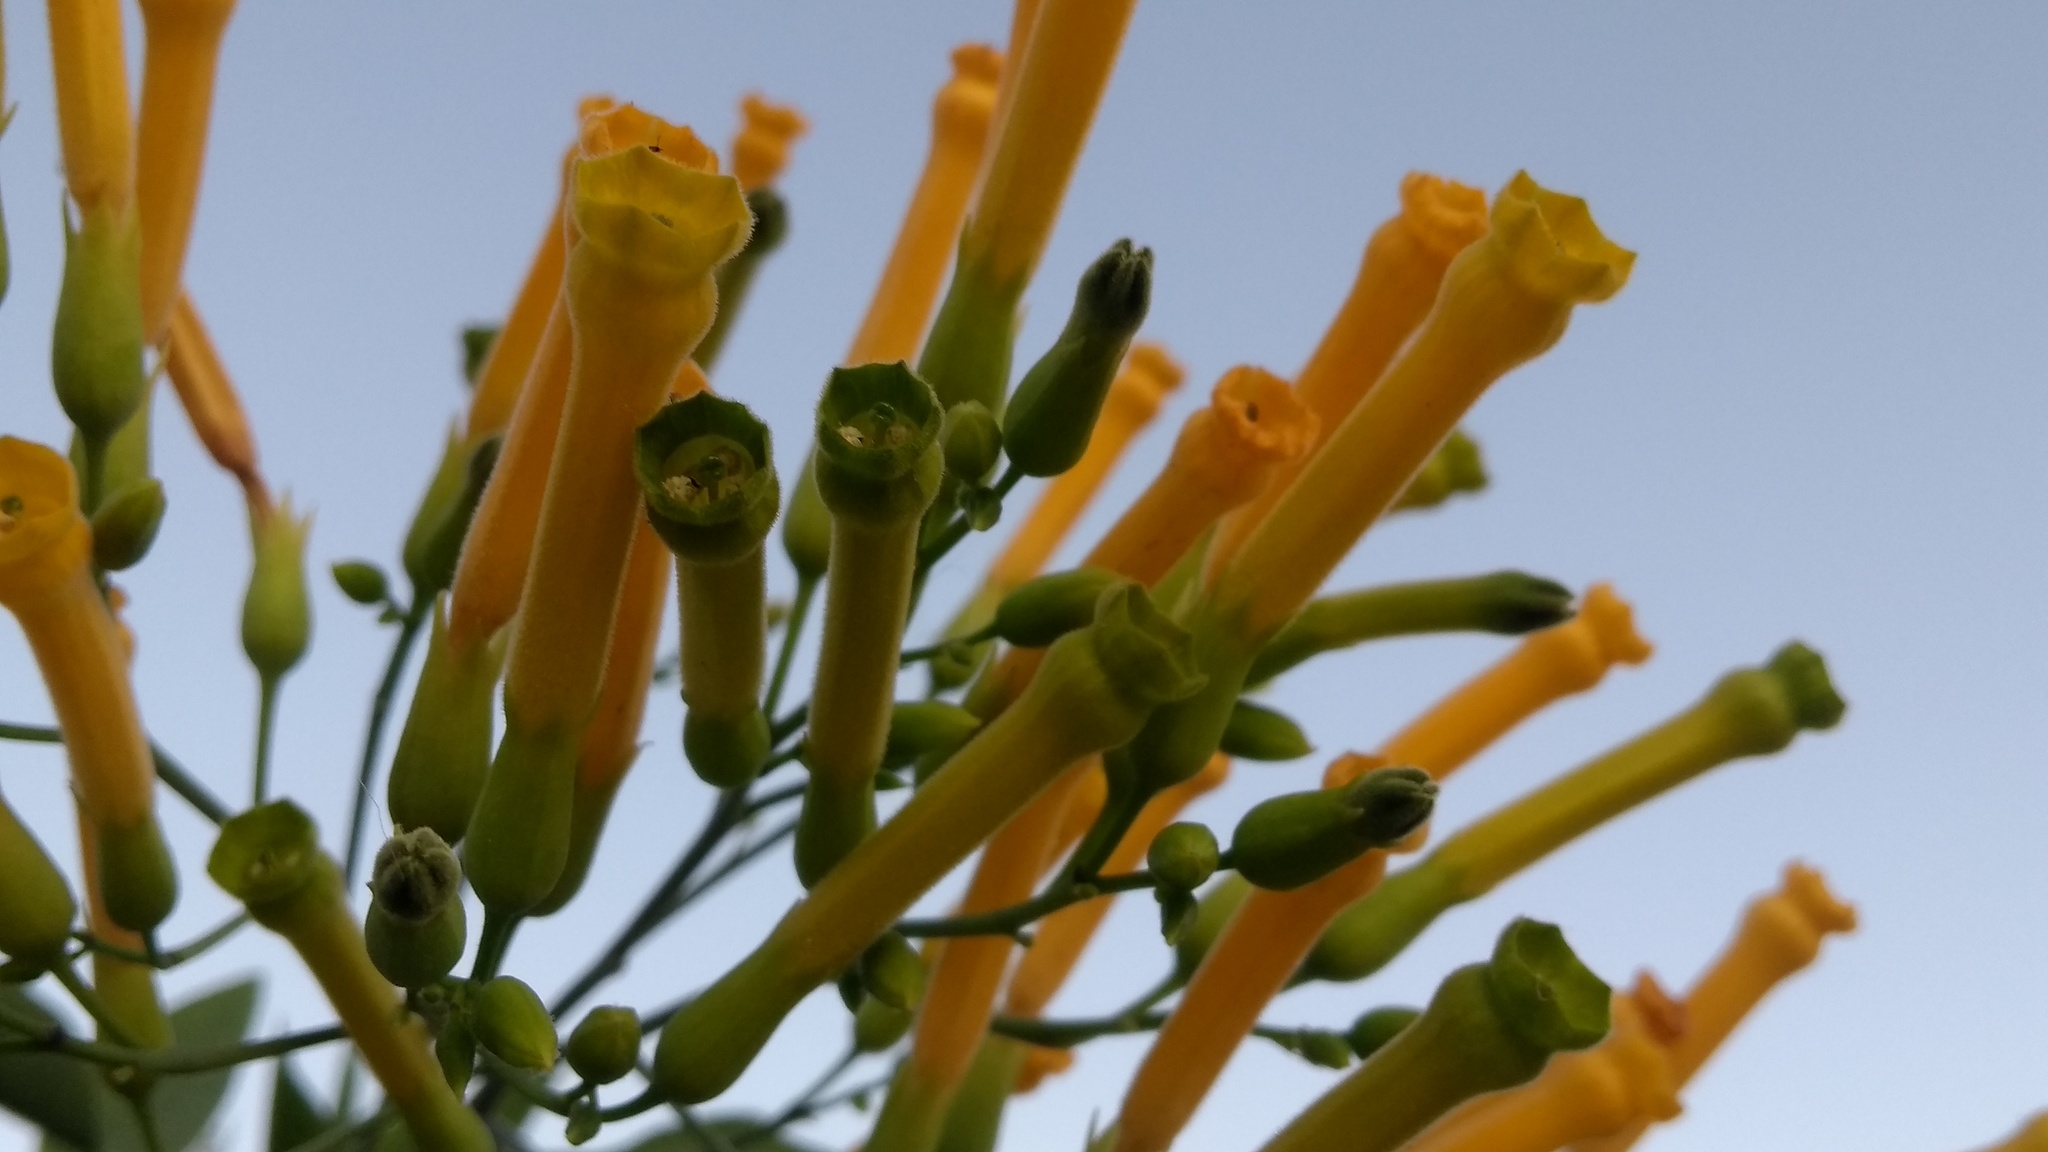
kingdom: Plantae
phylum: Tracheophyta
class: Magnoliopsida
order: Solanales
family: Solanaceae
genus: Nicotiana
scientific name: Nicotiana glauca
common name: Tree tobacco
